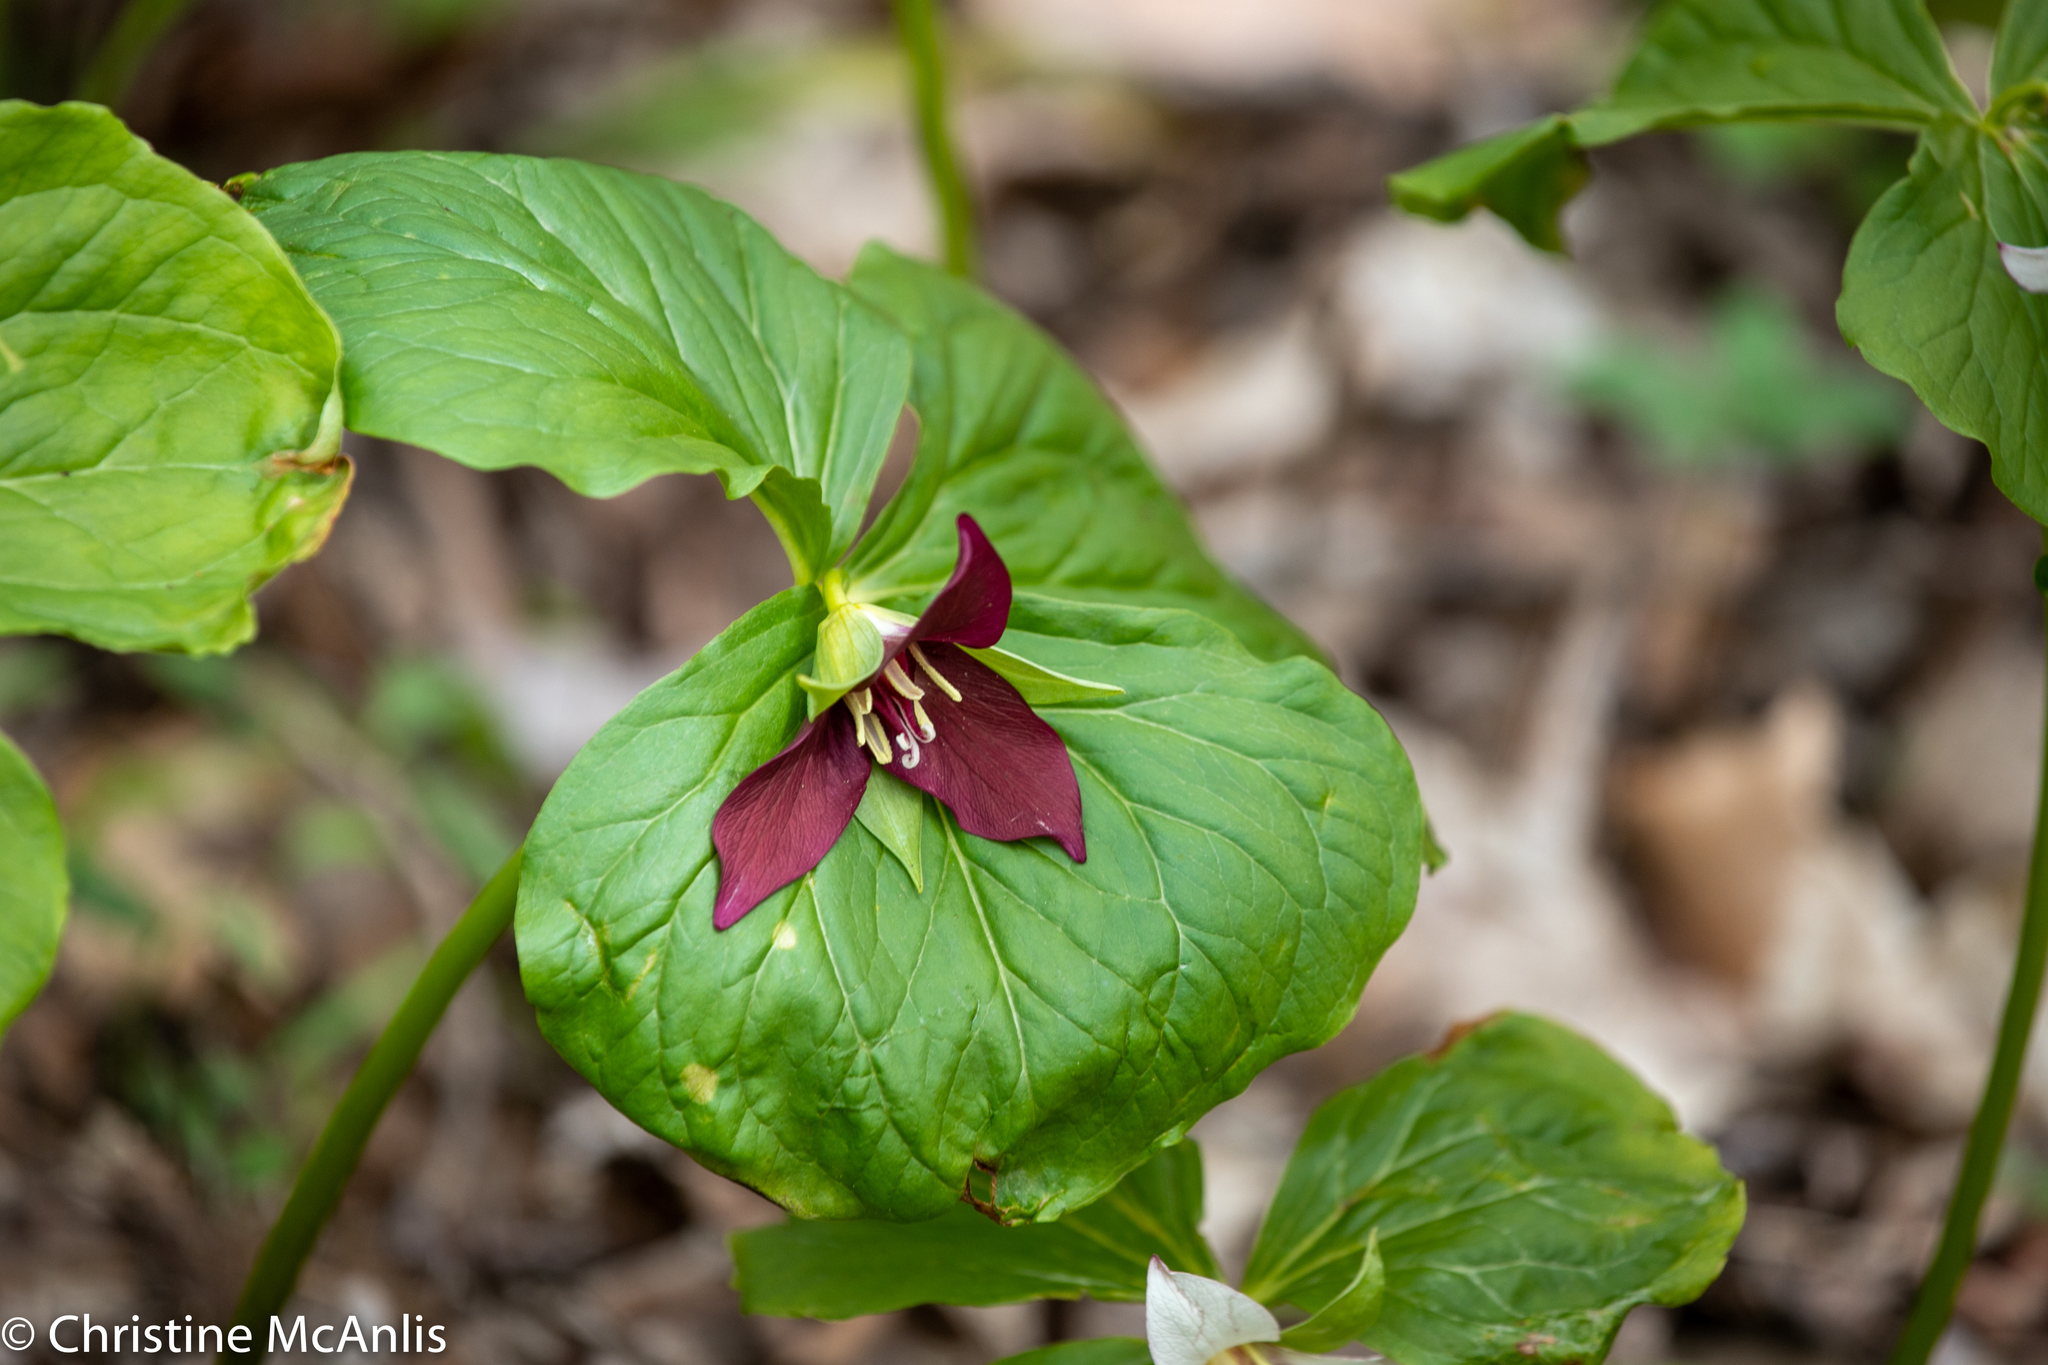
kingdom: Plantae
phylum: Tracheophyta
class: Liliopsida
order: Liliales
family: Melanthiaceae
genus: Trillium
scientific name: Trillium erectum
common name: Purple trillium
